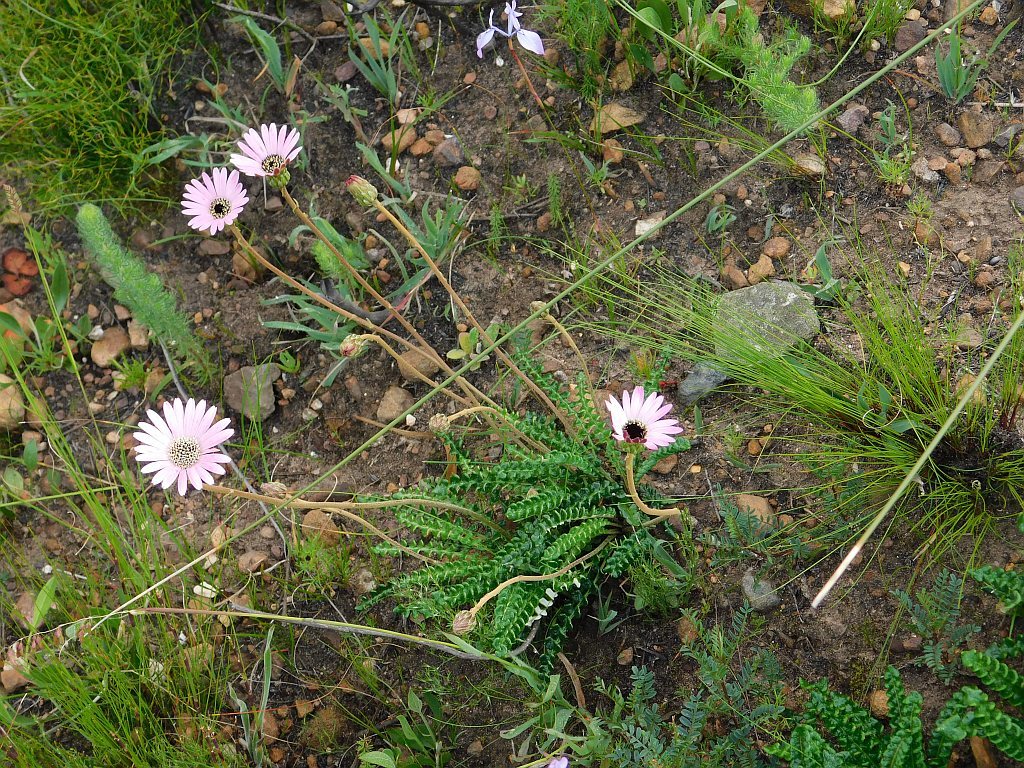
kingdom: Plantae
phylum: Tracheophyta
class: Magnoliopsida
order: Asterales
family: Asteraceae
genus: Gerbera
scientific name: Gerbera linnaei
